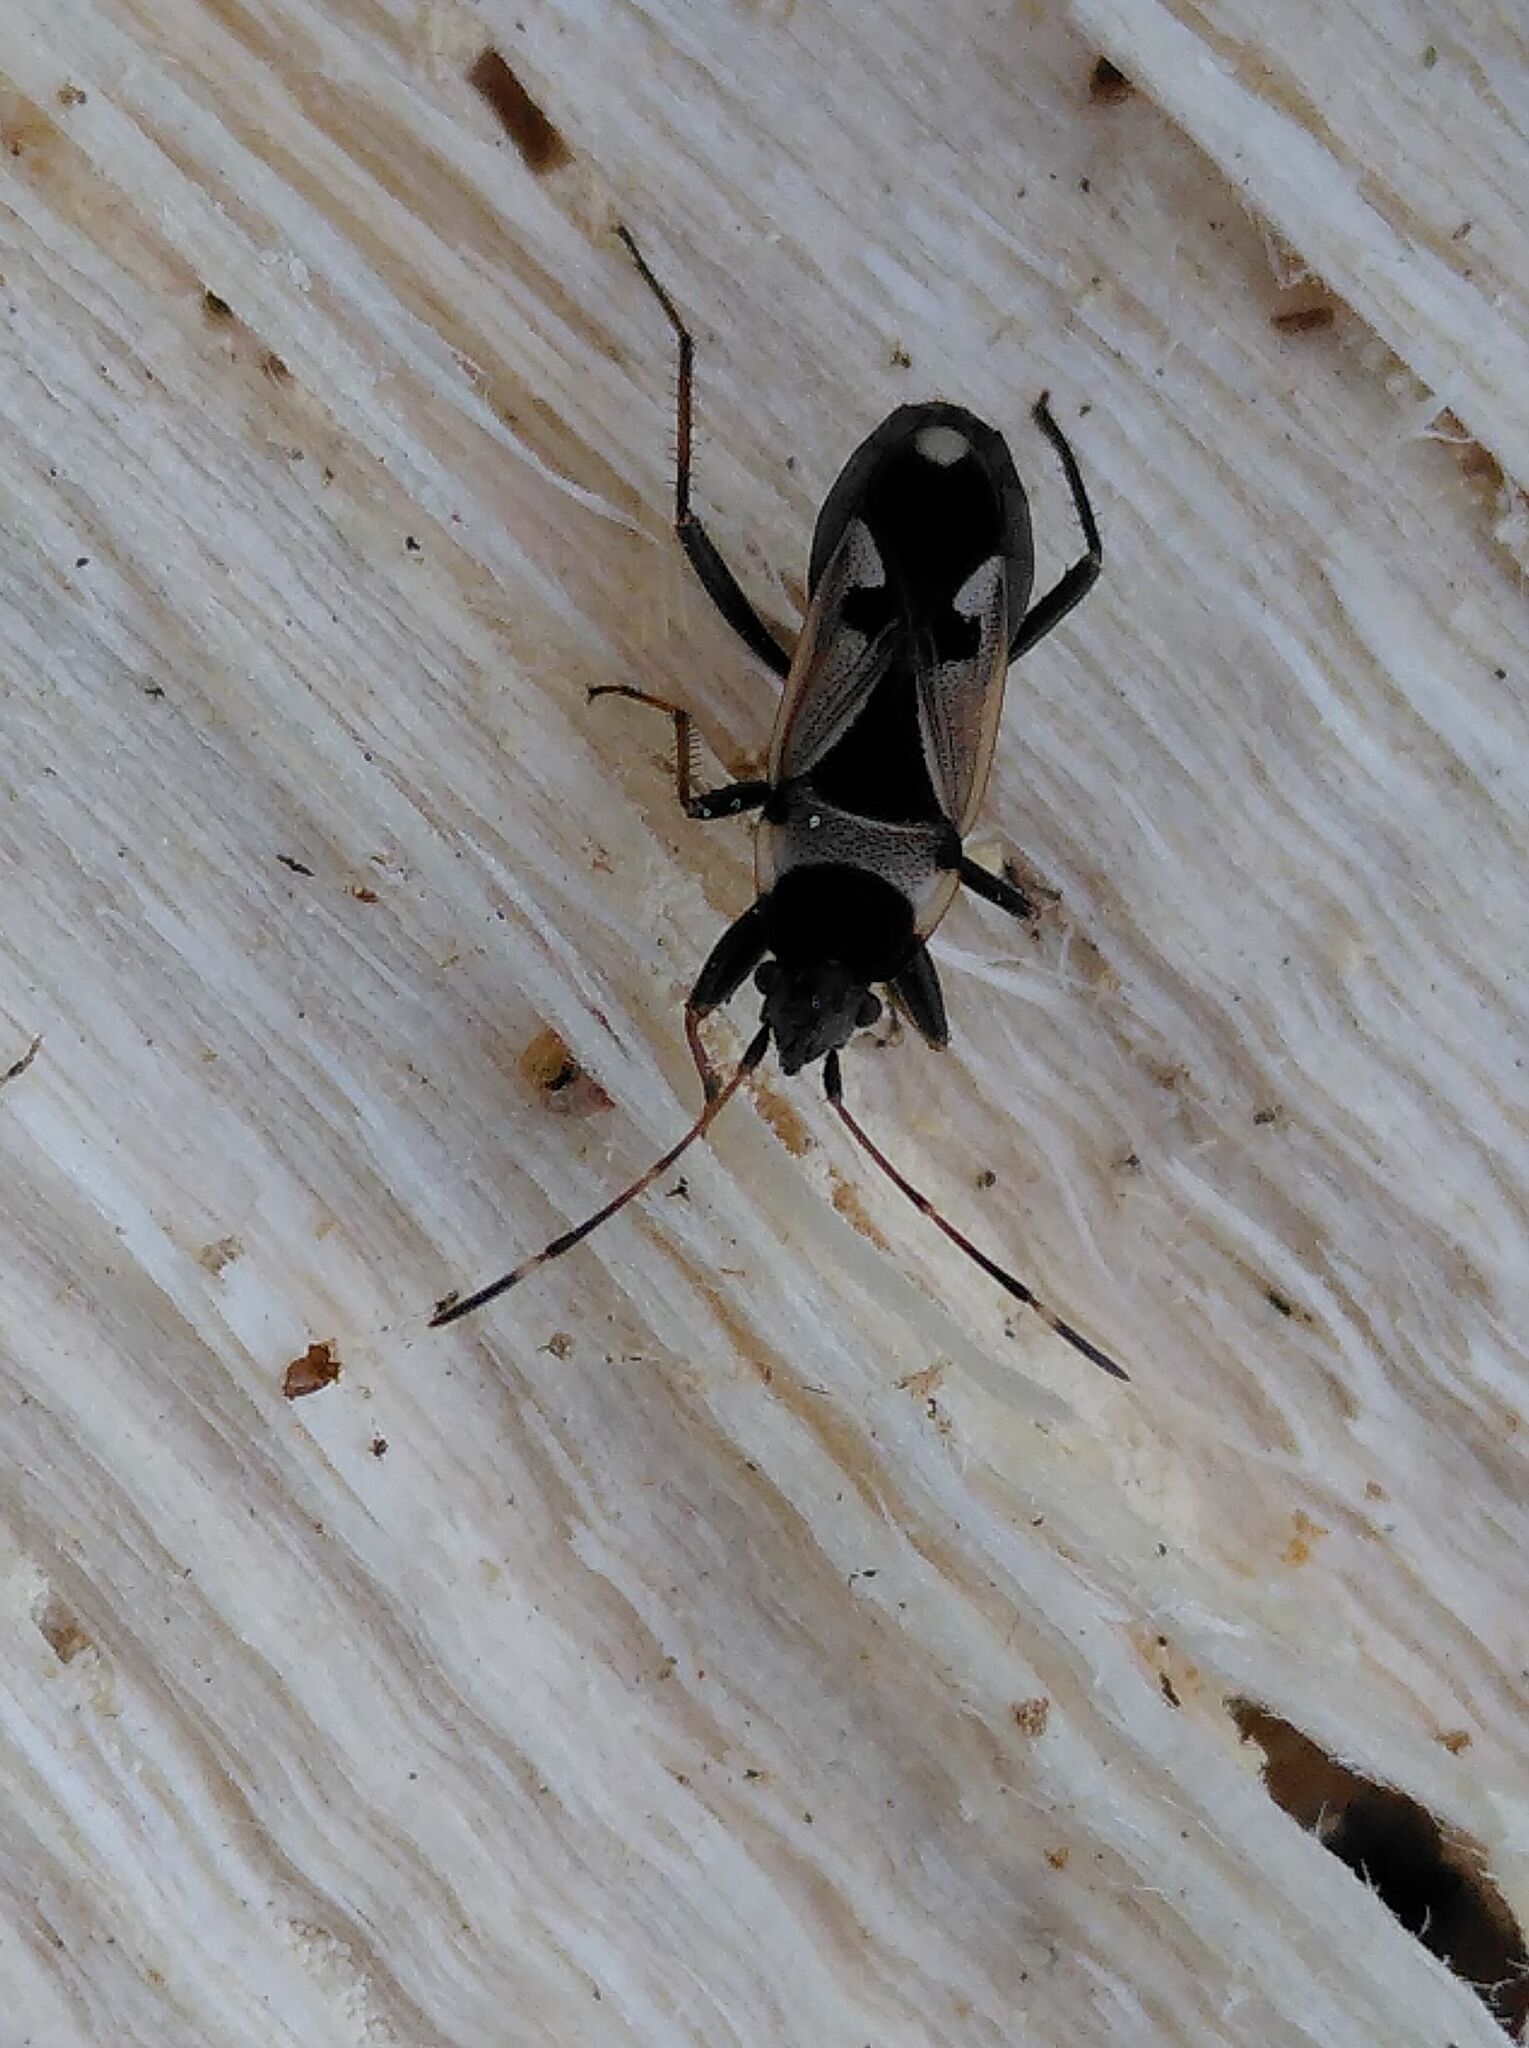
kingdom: Animalia
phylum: Arthropoda
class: Insecta
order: Hemiptera
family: Rhyparochromidae
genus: Raglius
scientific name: Raglius confusus
